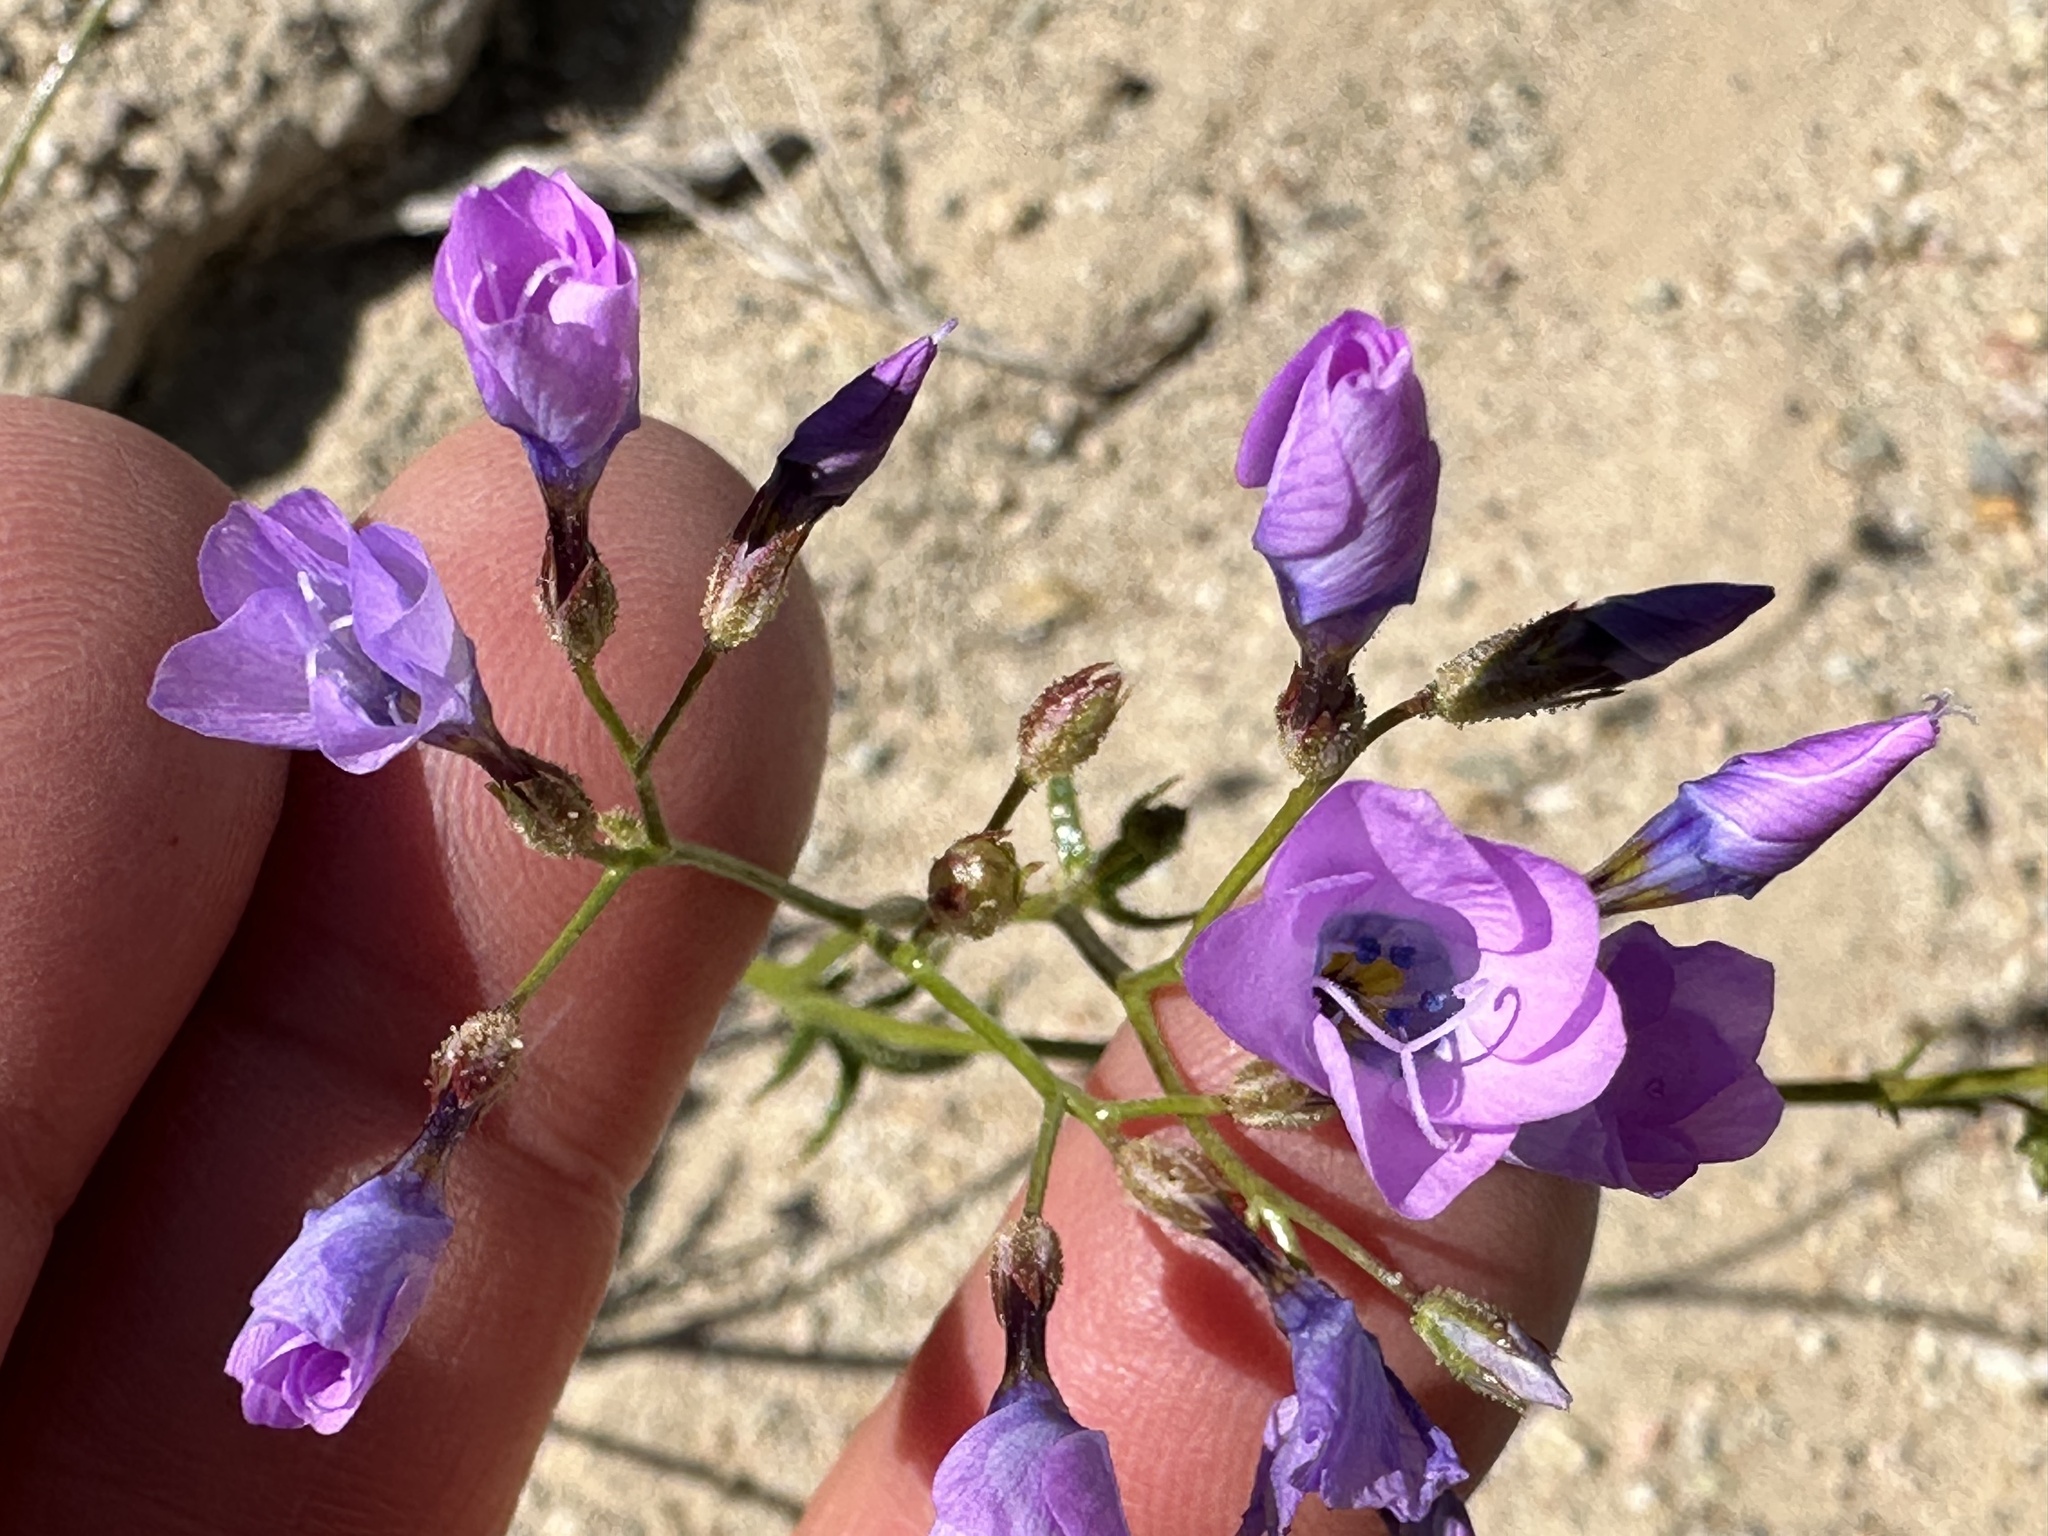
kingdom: Plantae
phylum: Tracheophyta
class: Magnoliopsida
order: Ericales
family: Polemoniaceae
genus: Gilia
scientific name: Gilia cana
